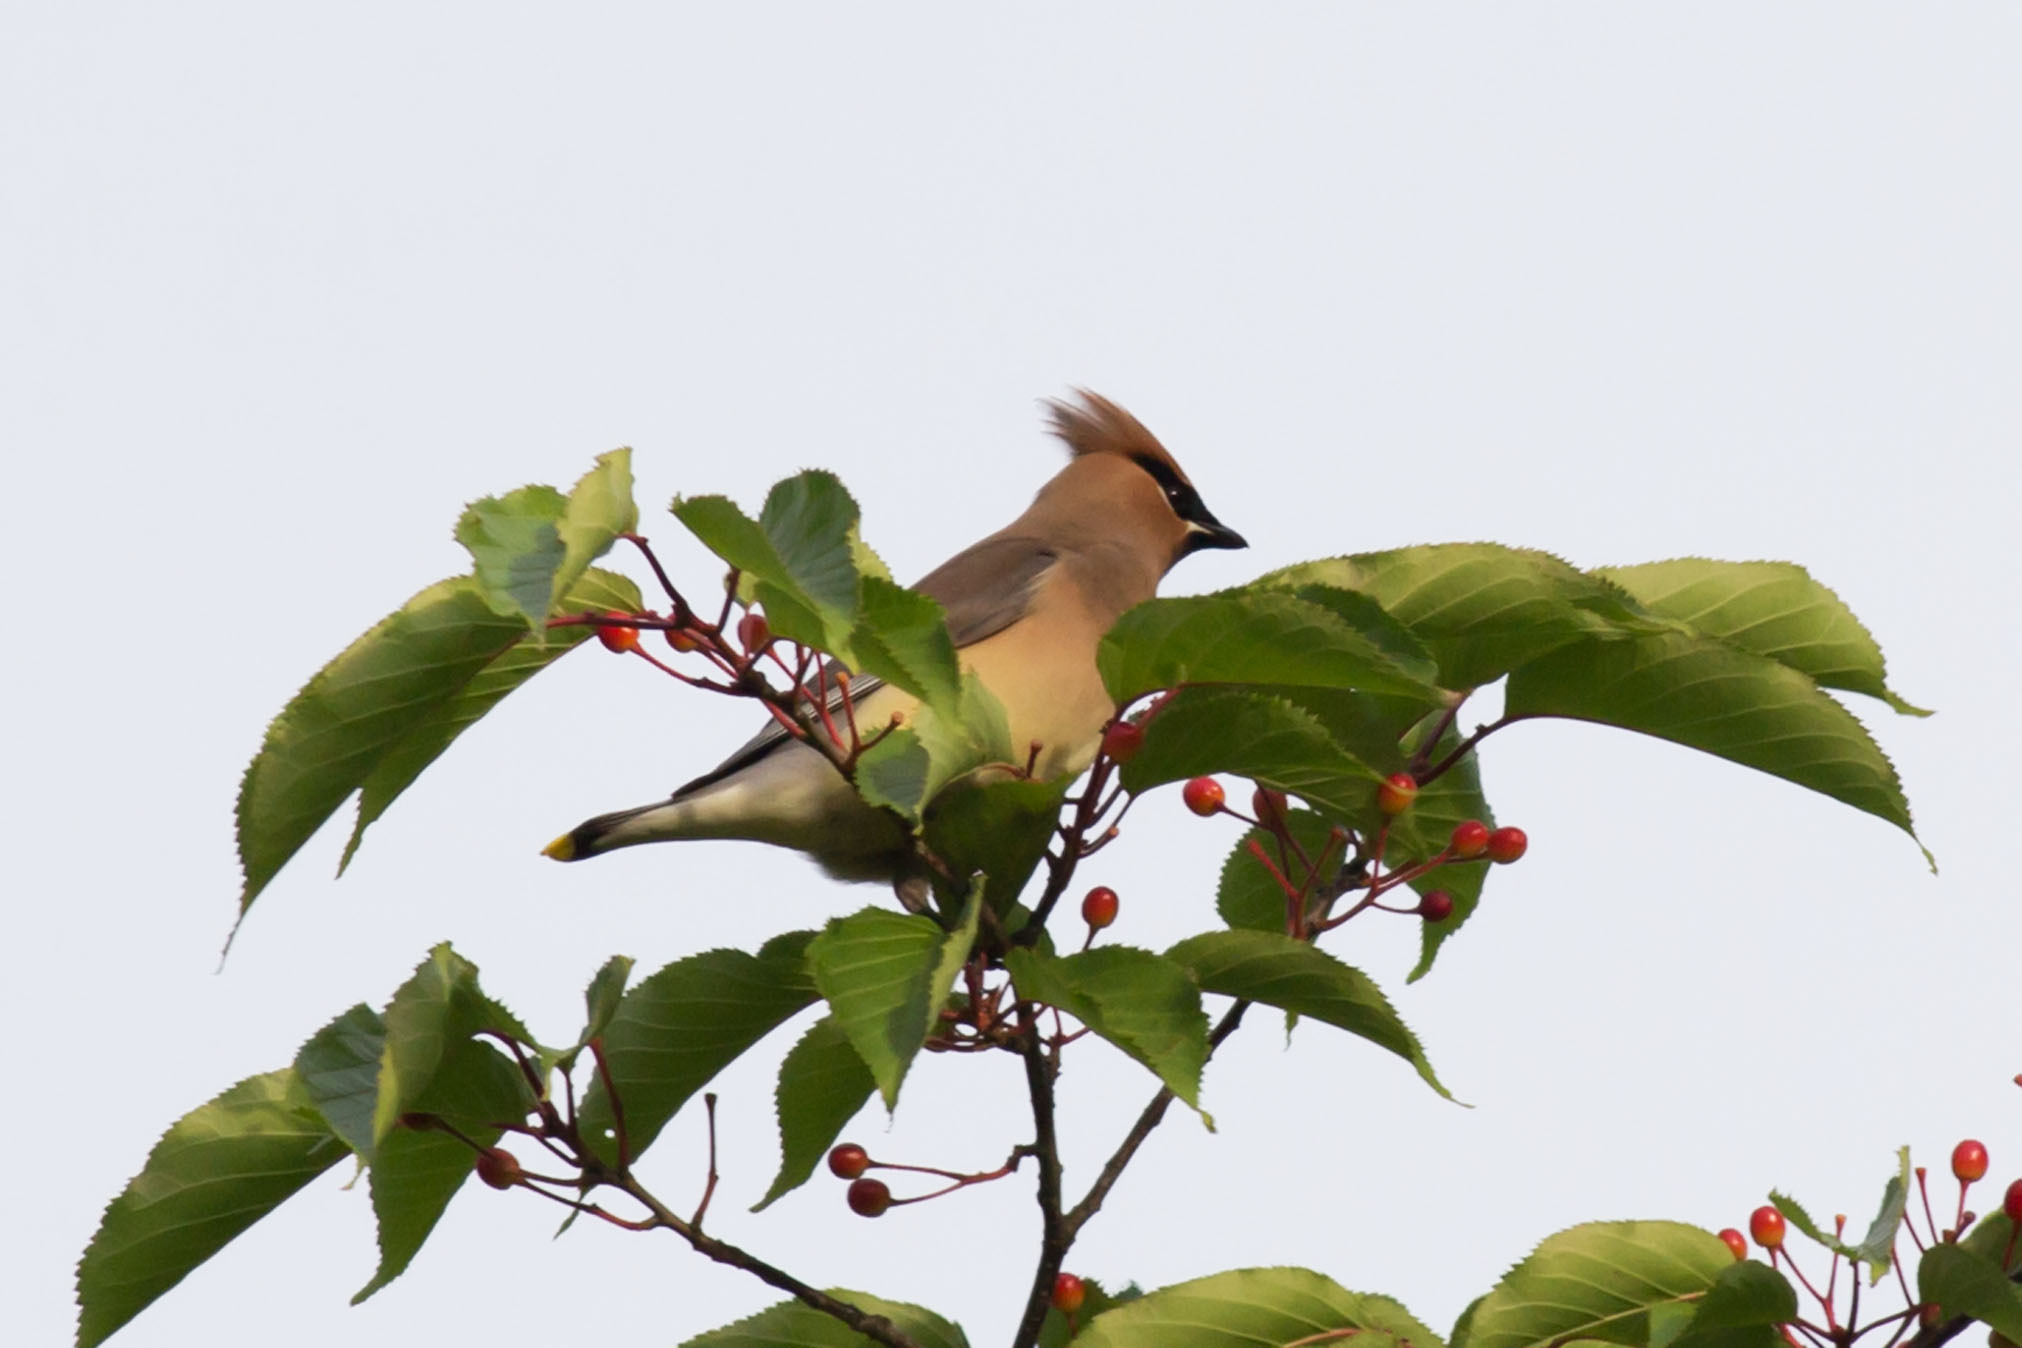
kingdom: Animalia
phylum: Chordata
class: Aves
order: Passeriformes
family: Bombycillidae
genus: Bombycilla
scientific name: Bombycilla cedrorum
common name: Cedar waxwing
